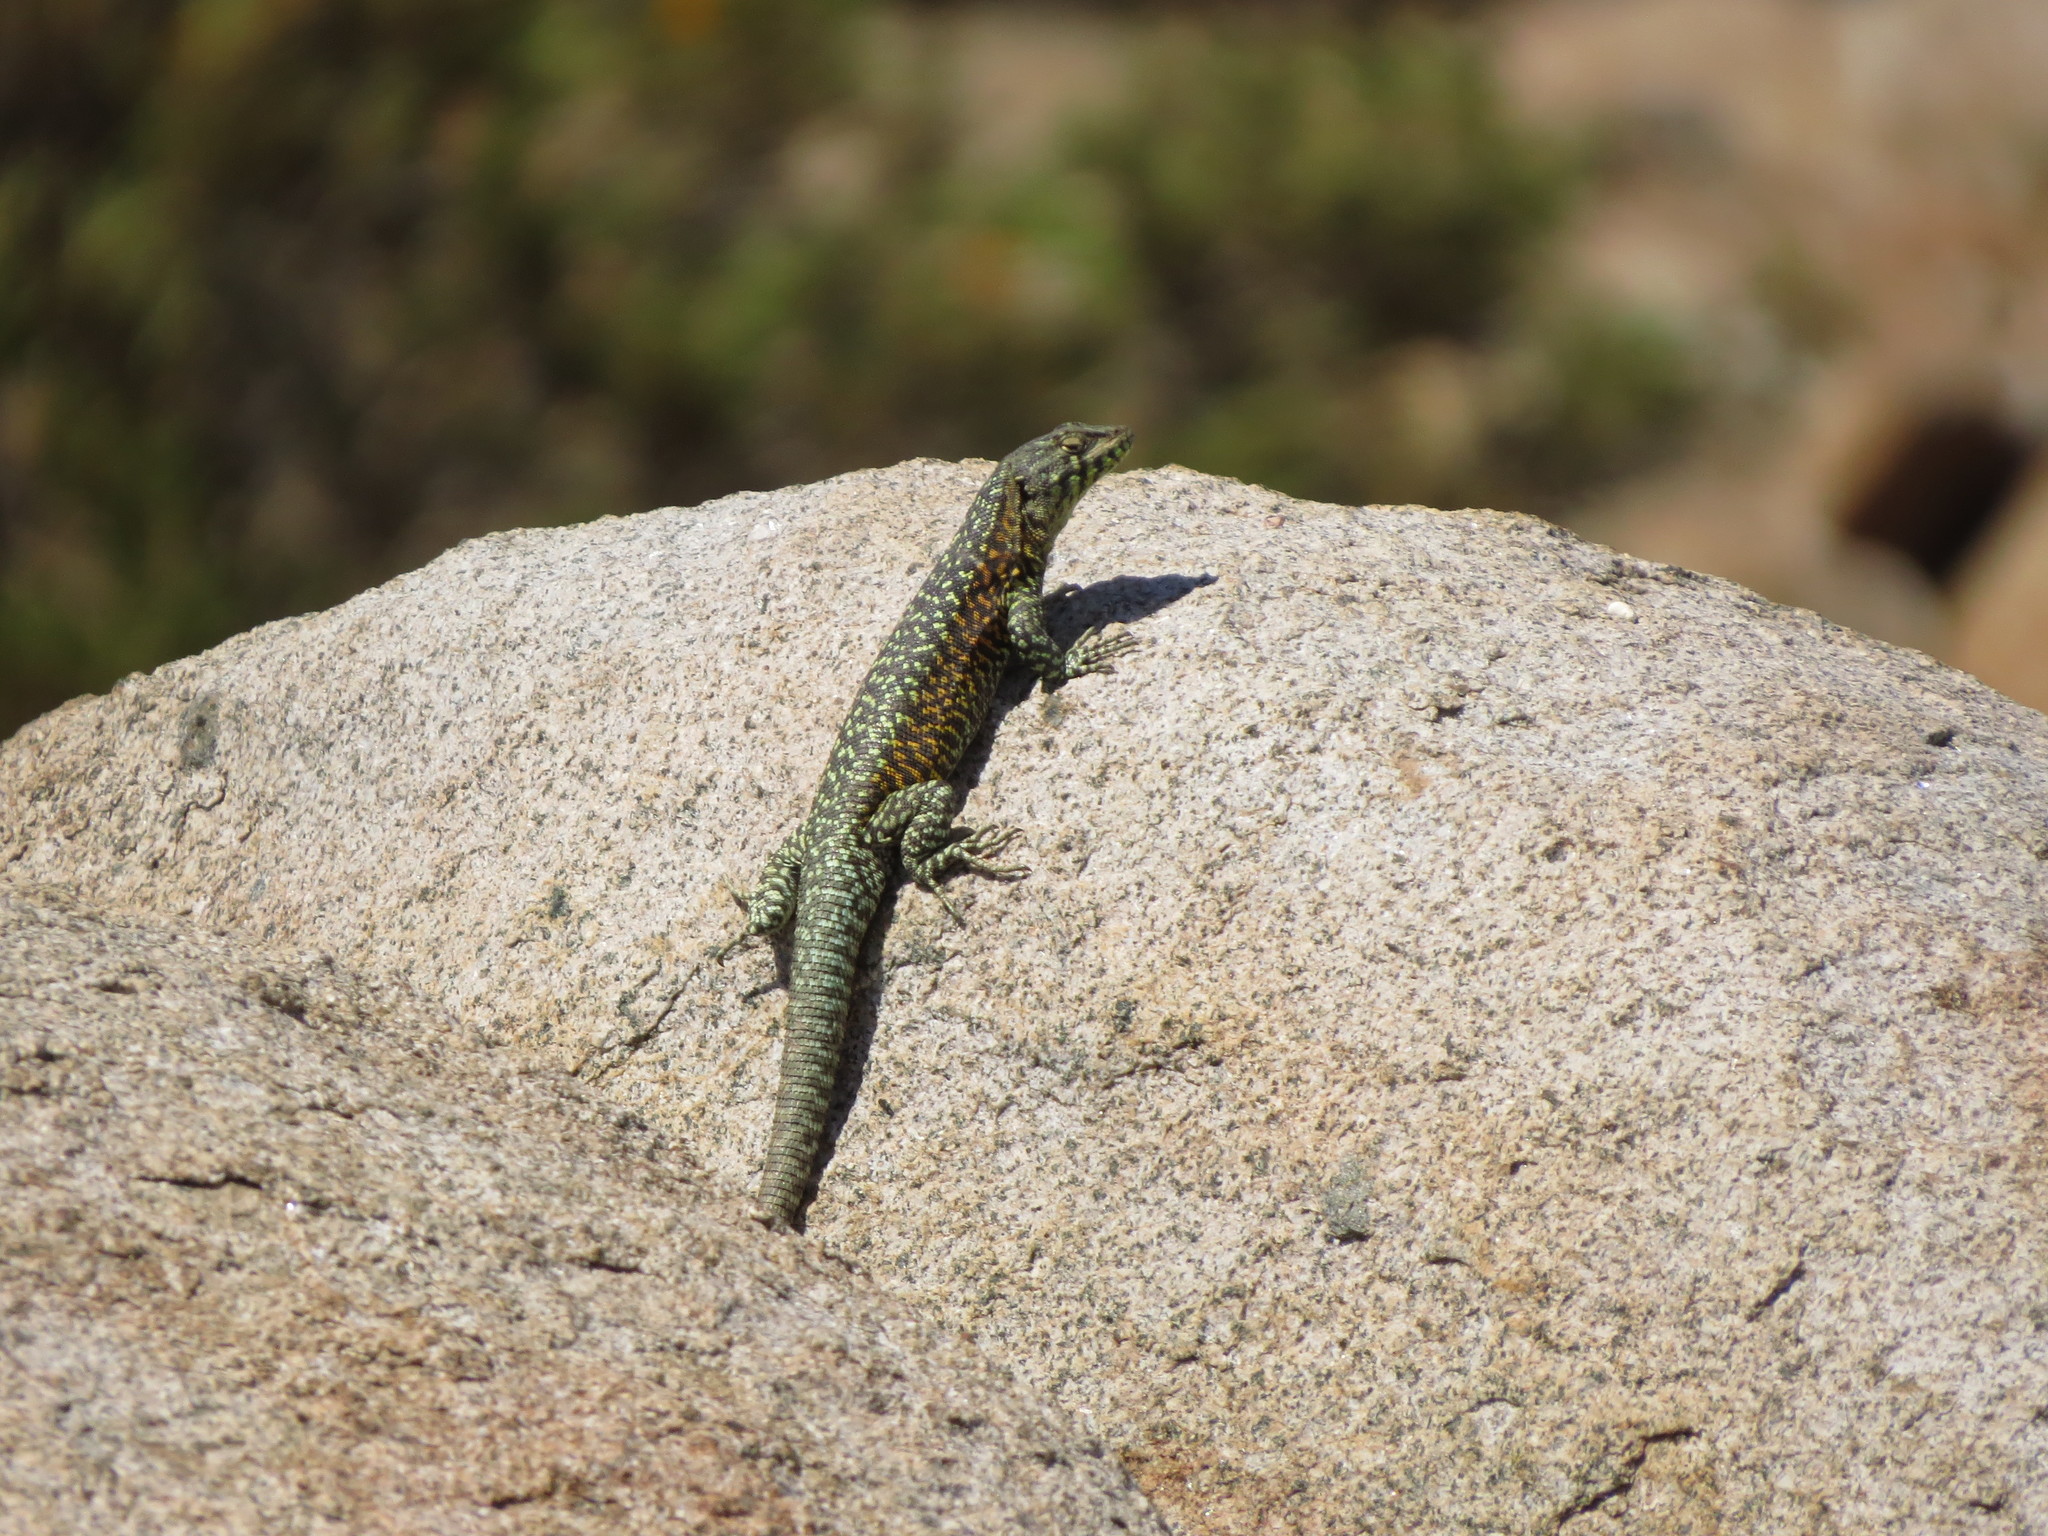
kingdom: Animalia
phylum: Chordata
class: Squamata
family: Liolaemidae
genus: Liolaemus
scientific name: Liolaemus nigroviridis
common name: Black-green tree iguana
